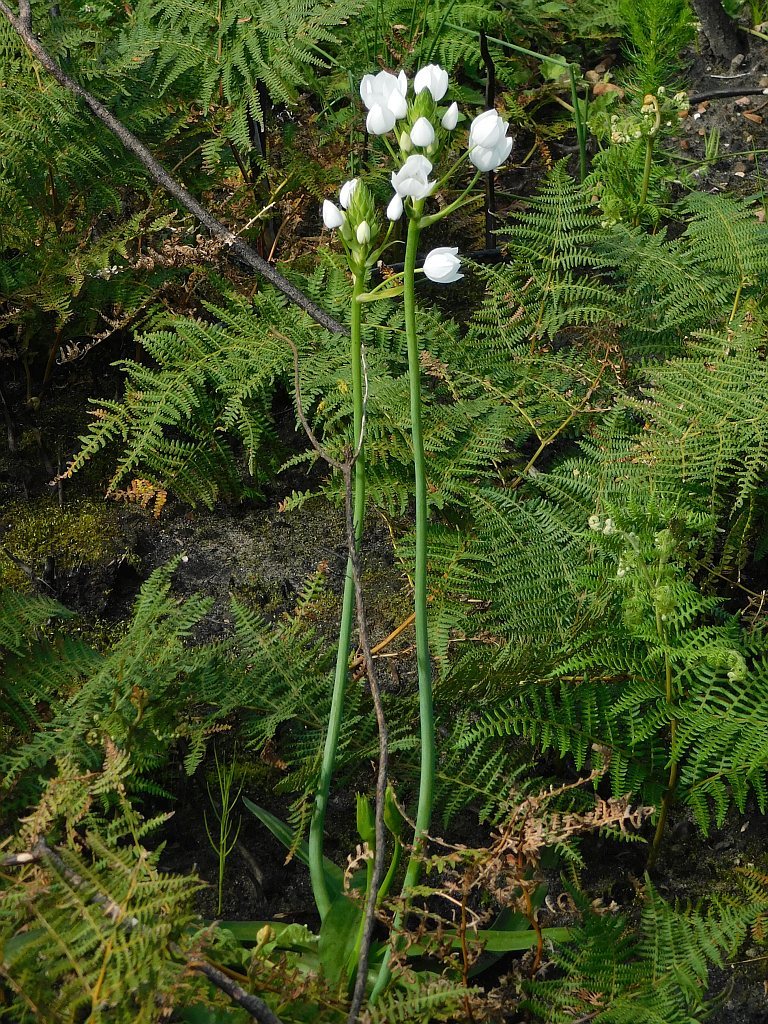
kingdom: Plantae
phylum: Tracheophyta
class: Liliopsida
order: Asparagales
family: Asparagaceae
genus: Ornithogalum
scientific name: Ornithogalum thyrsoides
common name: Chincherinchee
